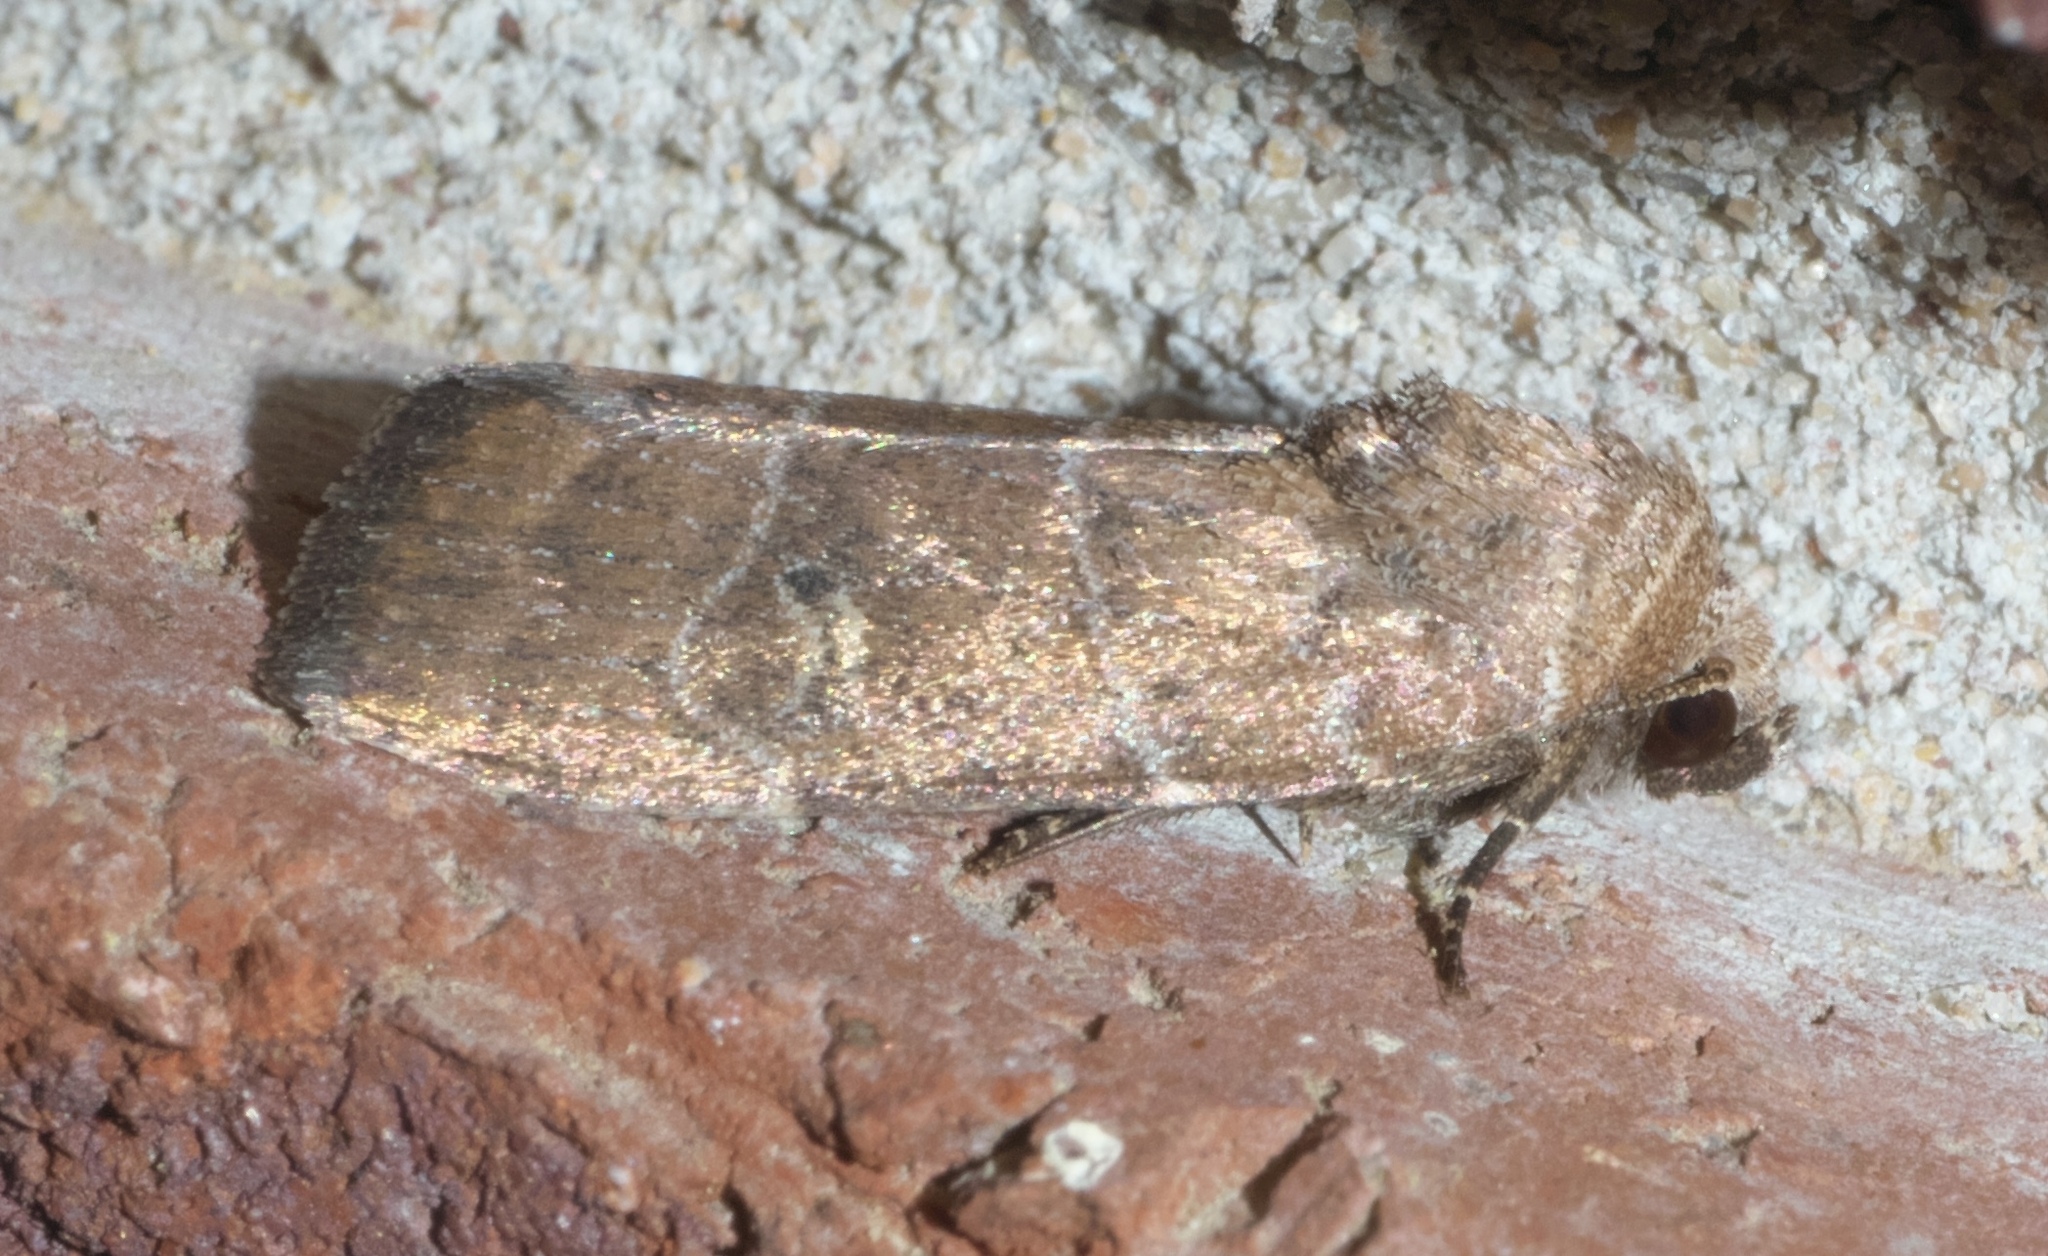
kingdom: Animalia
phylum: Arthropoda
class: Insecta
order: Lepidoptera
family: Noctuidae
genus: Elaphria
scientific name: Elaphria grata
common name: Grateful midget moth
